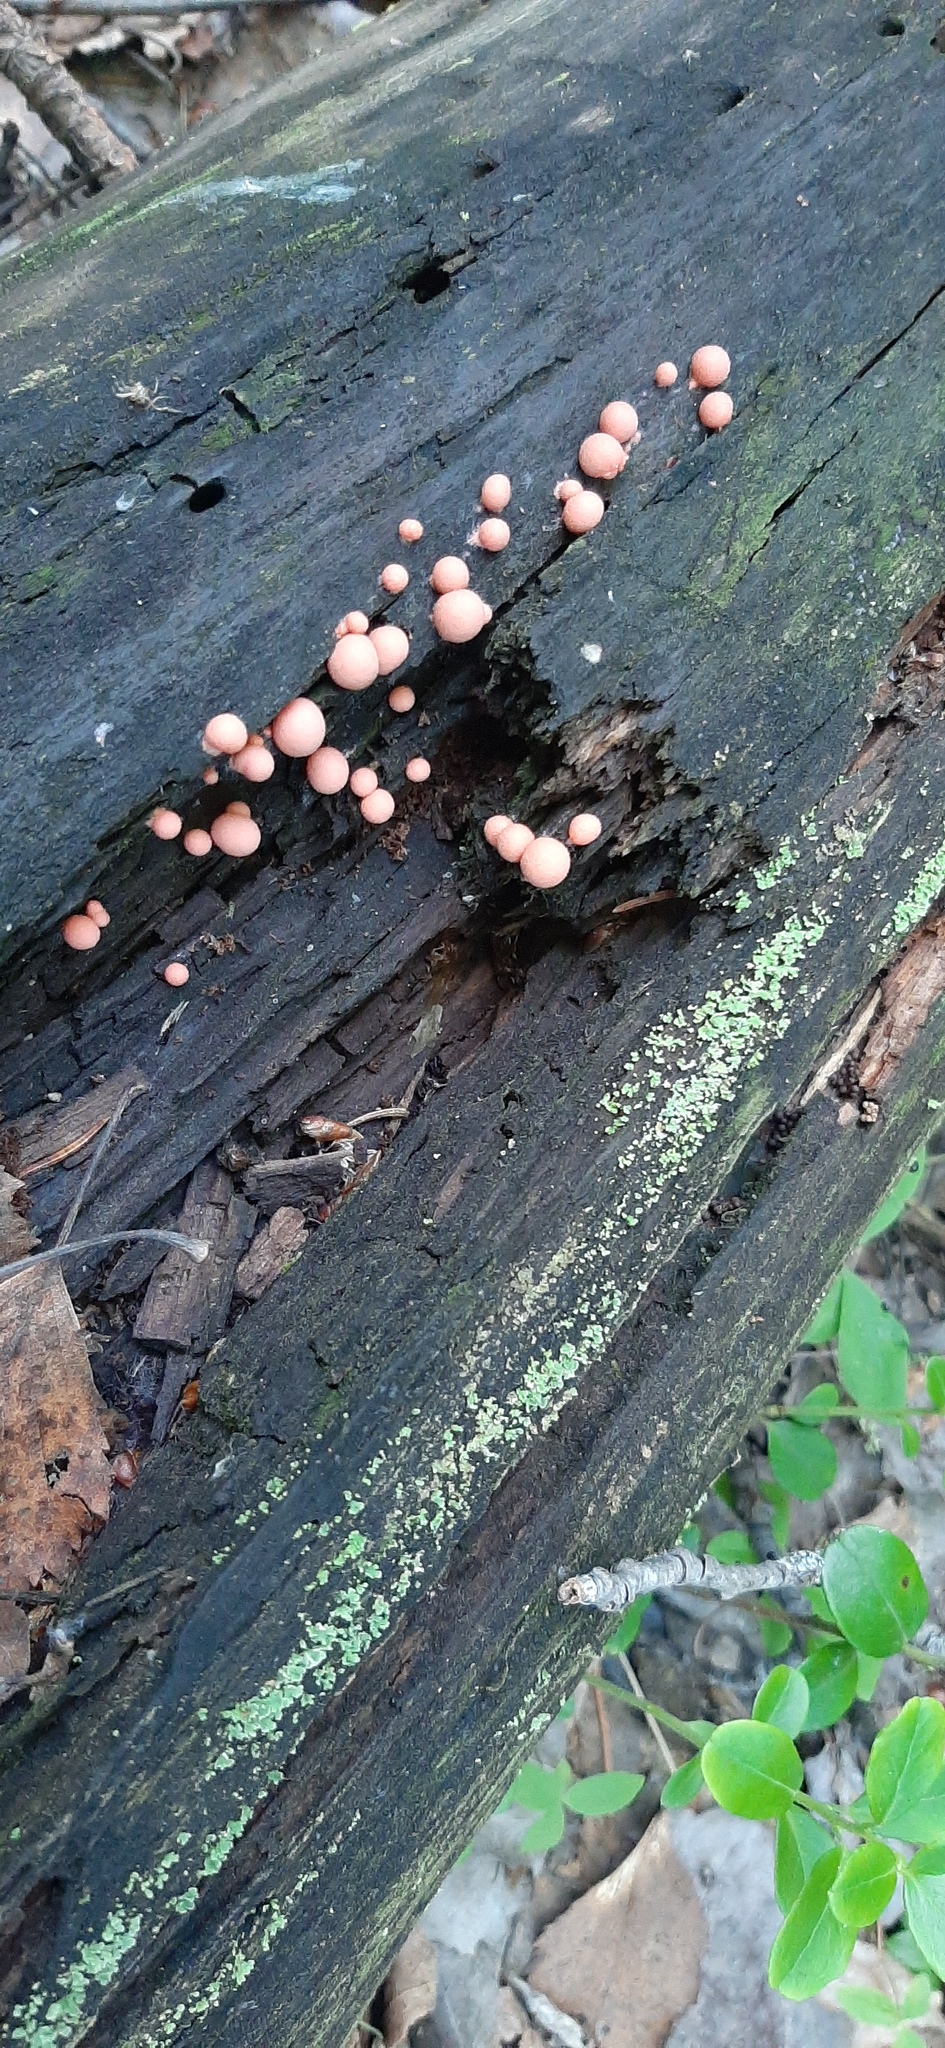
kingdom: Protozoa
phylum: Mycetozoa
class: Myxomycetes
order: Cribrariales
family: Tubiferaceae
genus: Lycogala
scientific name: Lycogala epidendrum
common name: Wolf's milk
